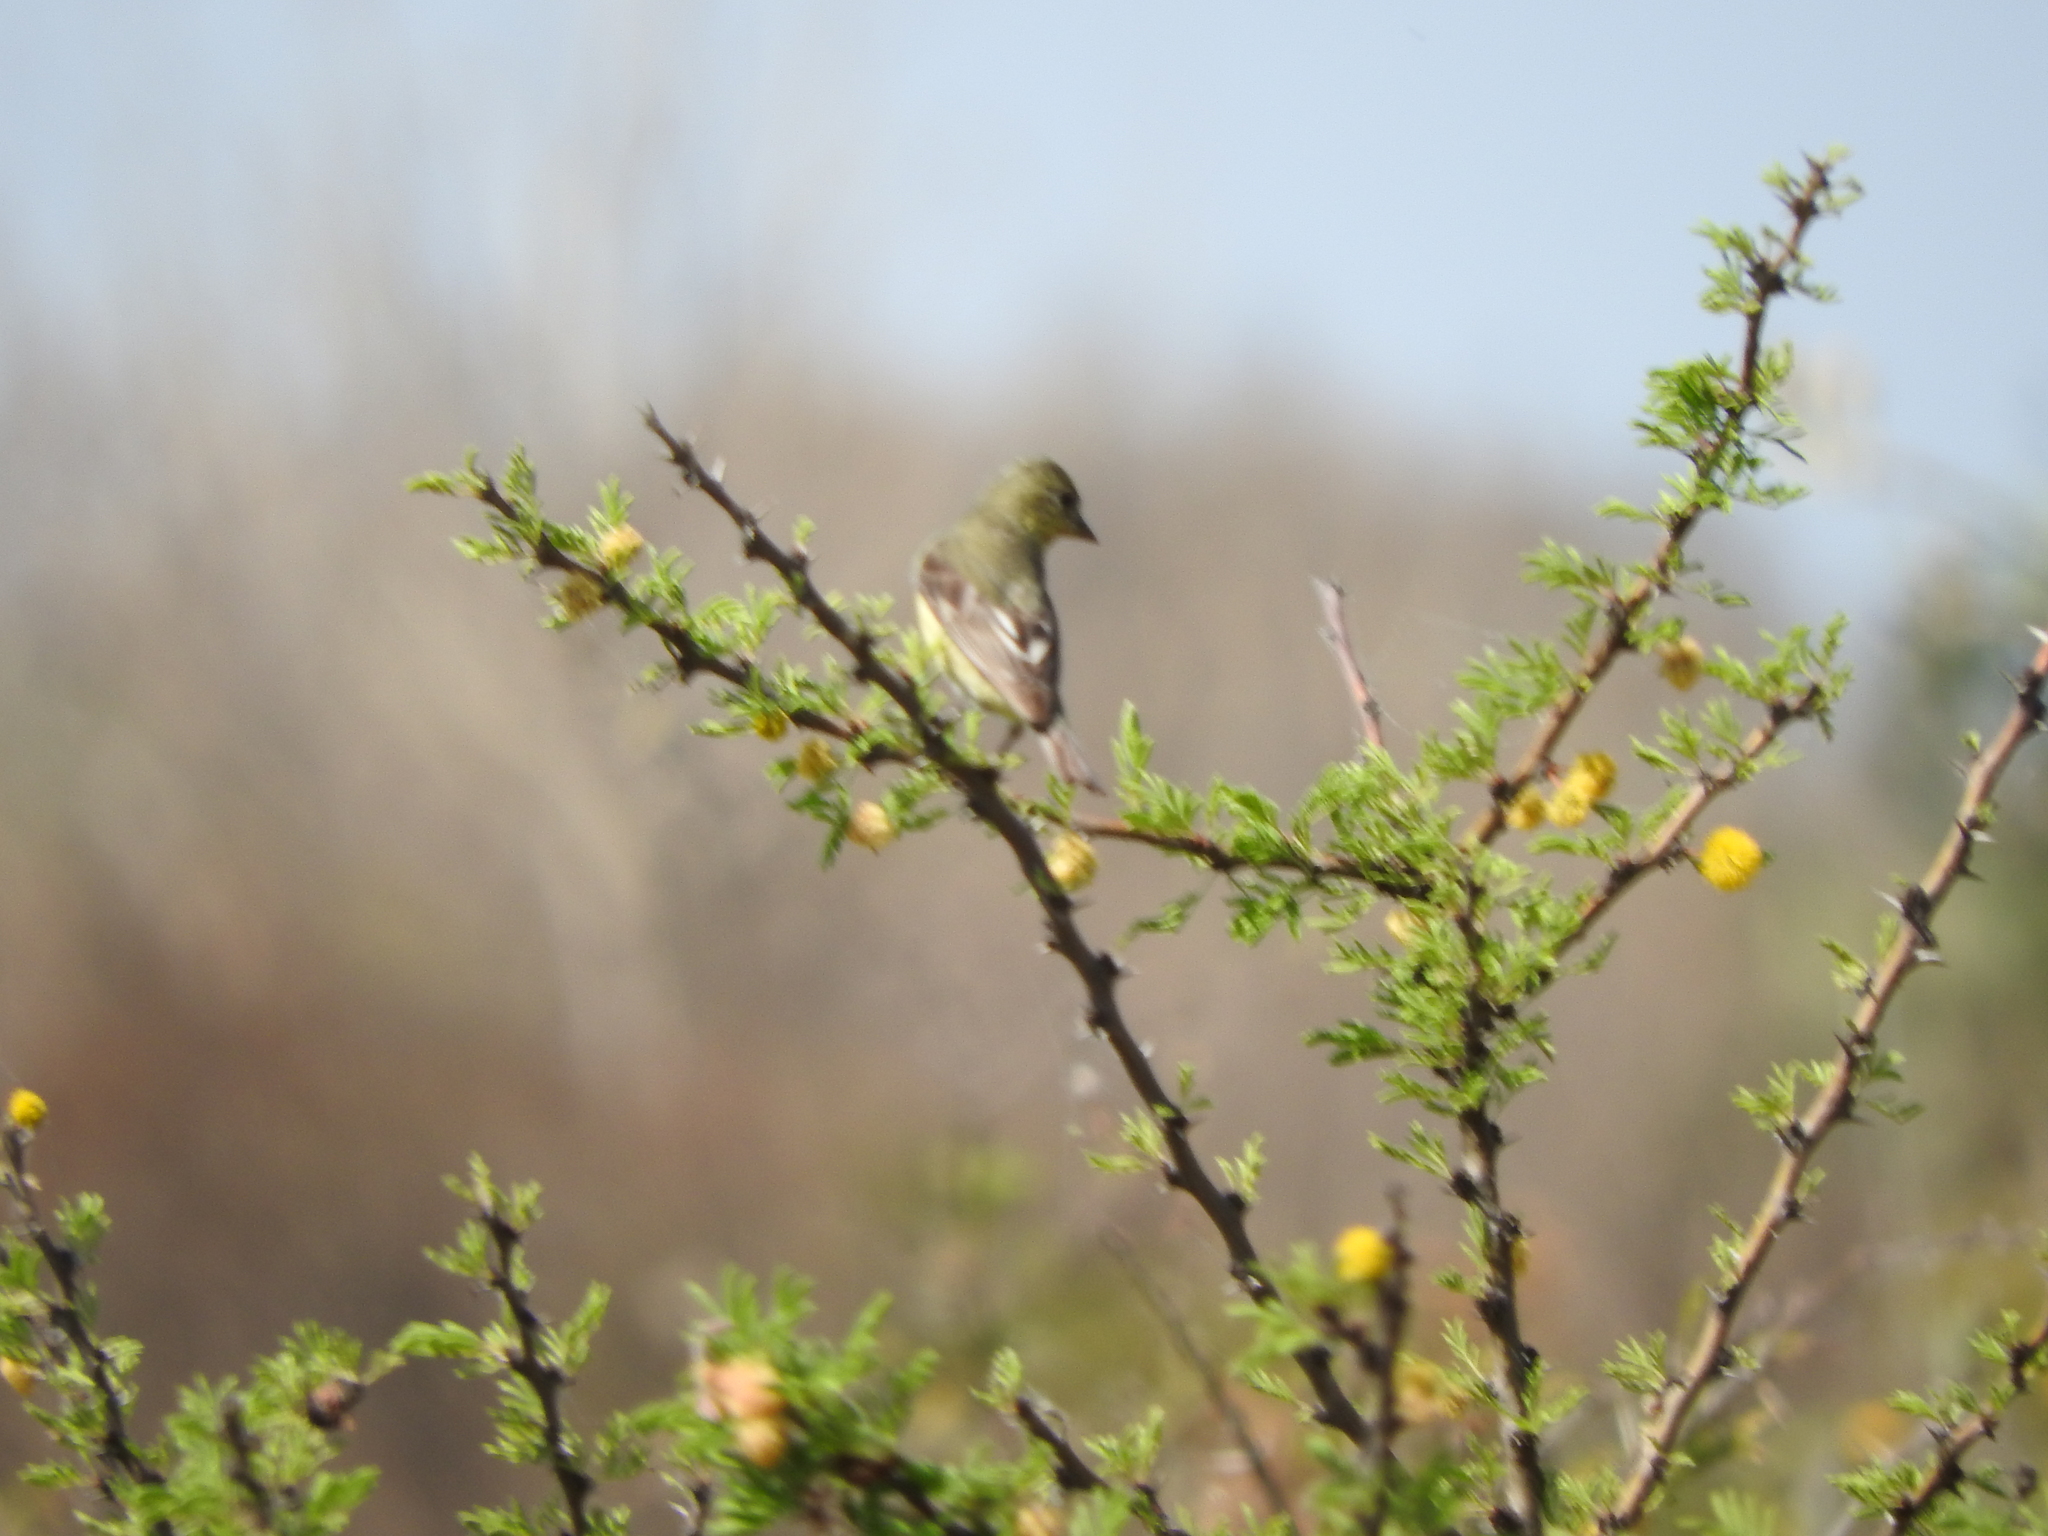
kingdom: Animalia
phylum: Chordata
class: Aves
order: Passeriformes
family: Fringillidae
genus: Spinus
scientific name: Spinus psaltria
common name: Lesser goldfinch
